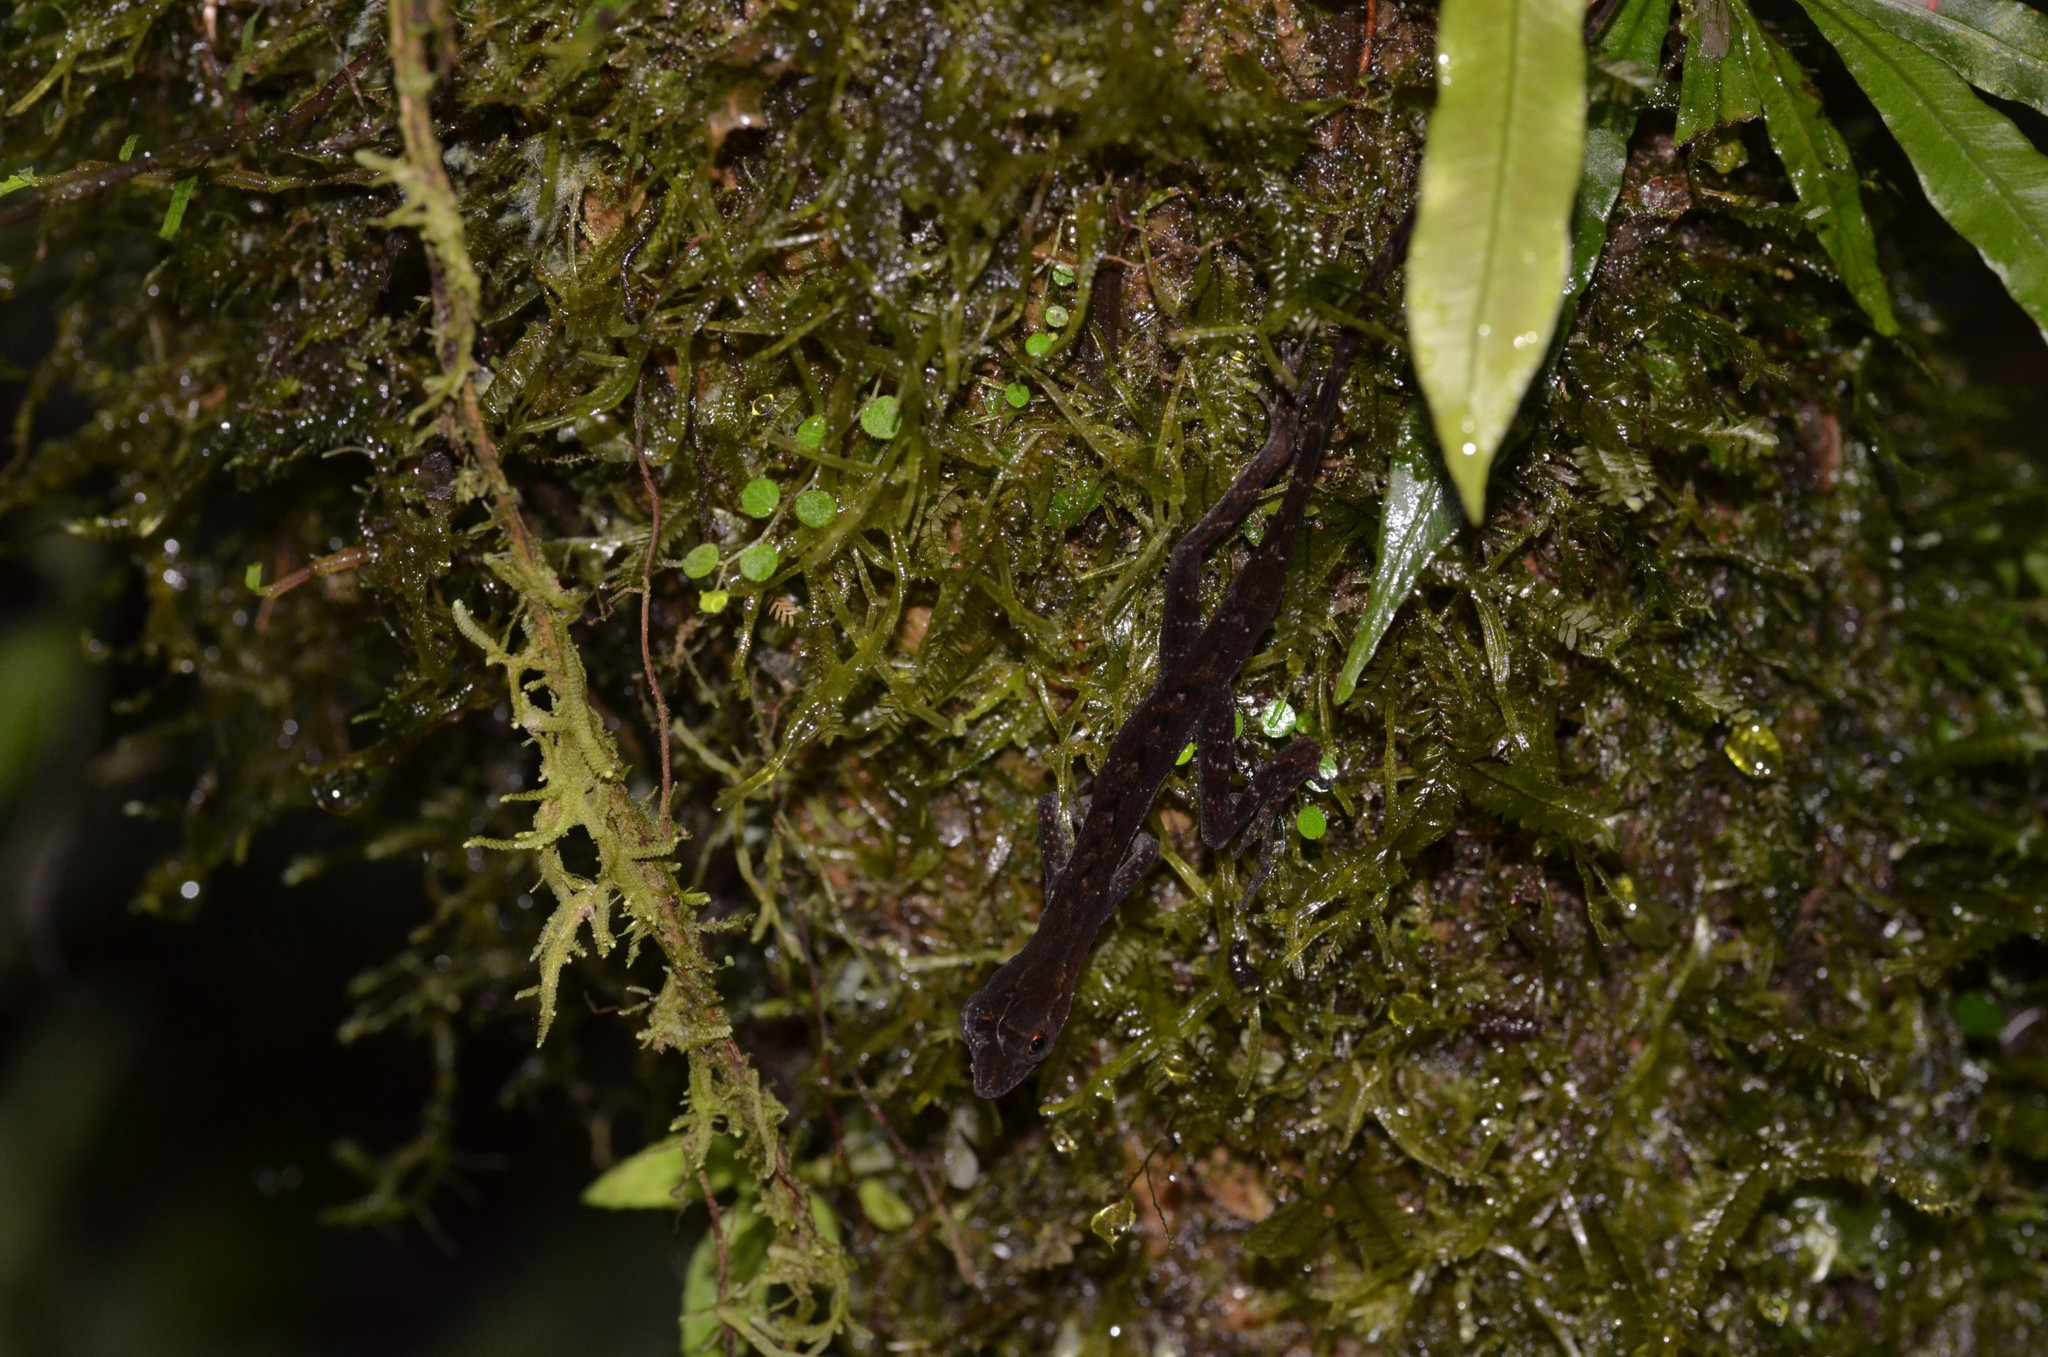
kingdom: Animalia
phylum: Chordata
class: Squamata
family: Dactyloidae
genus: Anolis
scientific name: Anolis granuliceps
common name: Granular anole
